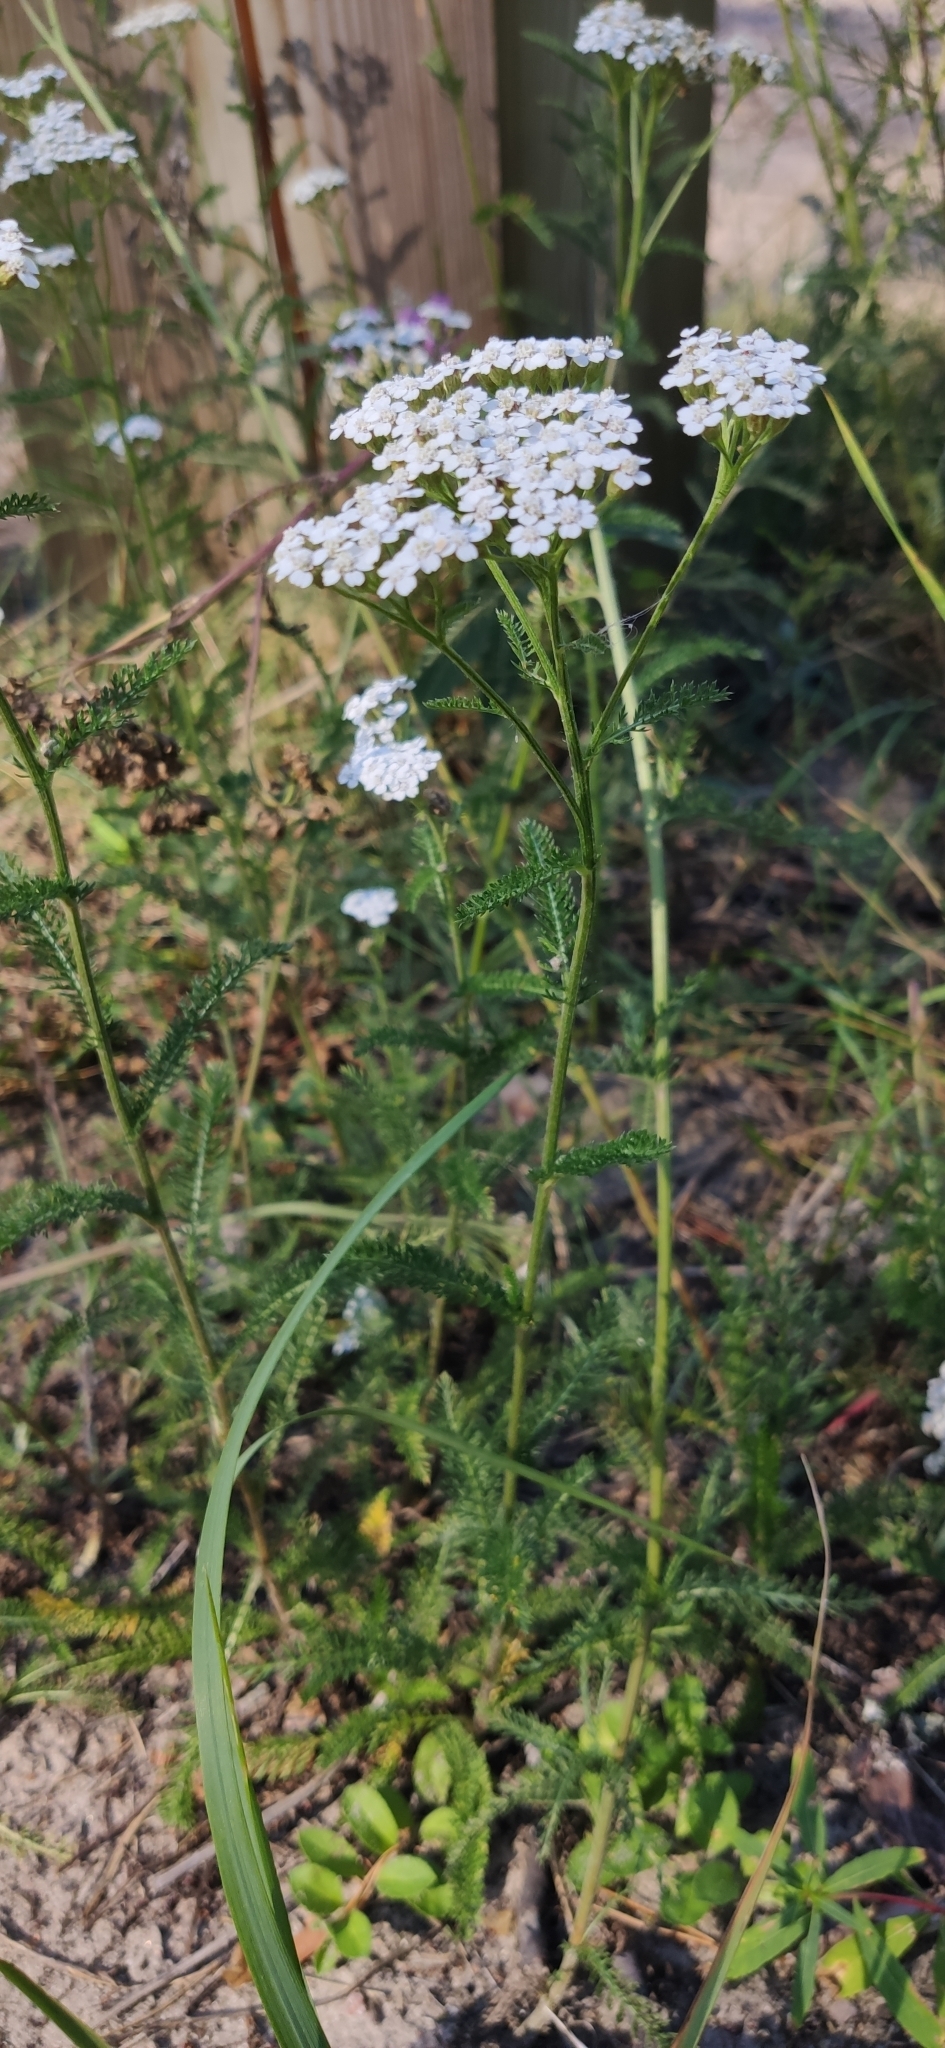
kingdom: Plantae
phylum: Tracheophyta
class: Magnoliopsida
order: Asterales
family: Asteraceae
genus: Achillea
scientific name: Achillea millefolium
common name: Yarrow
